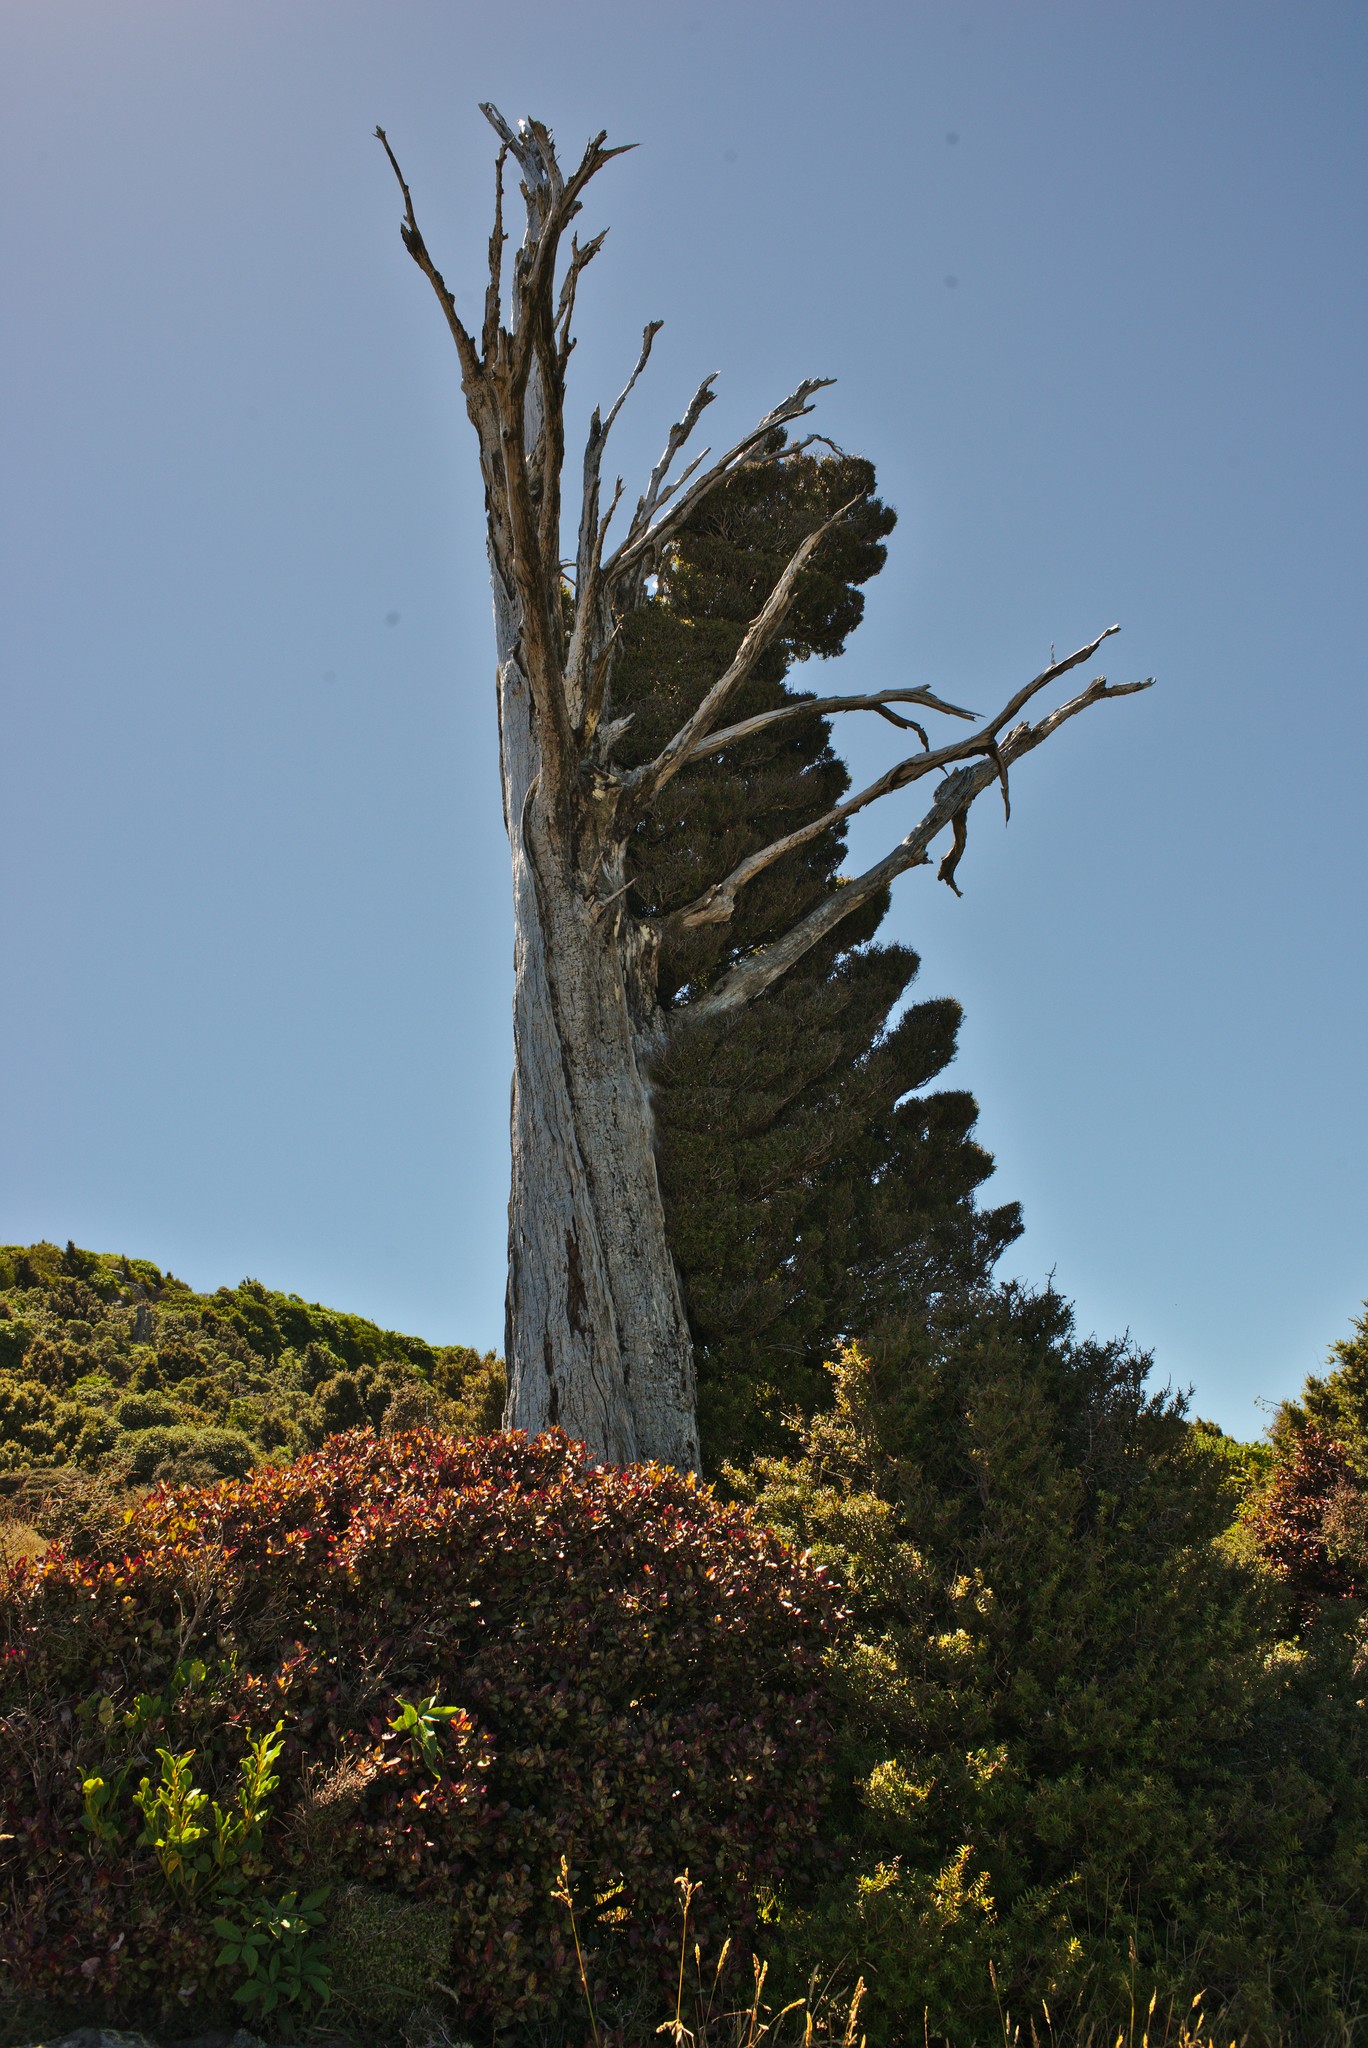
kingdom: Plantae
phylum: Tracheophyta
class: Pinopsida
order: Pinales
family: Podocarpaceae
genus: Podocarpus
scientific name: Podocarpus laetus
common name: Hall's totara
